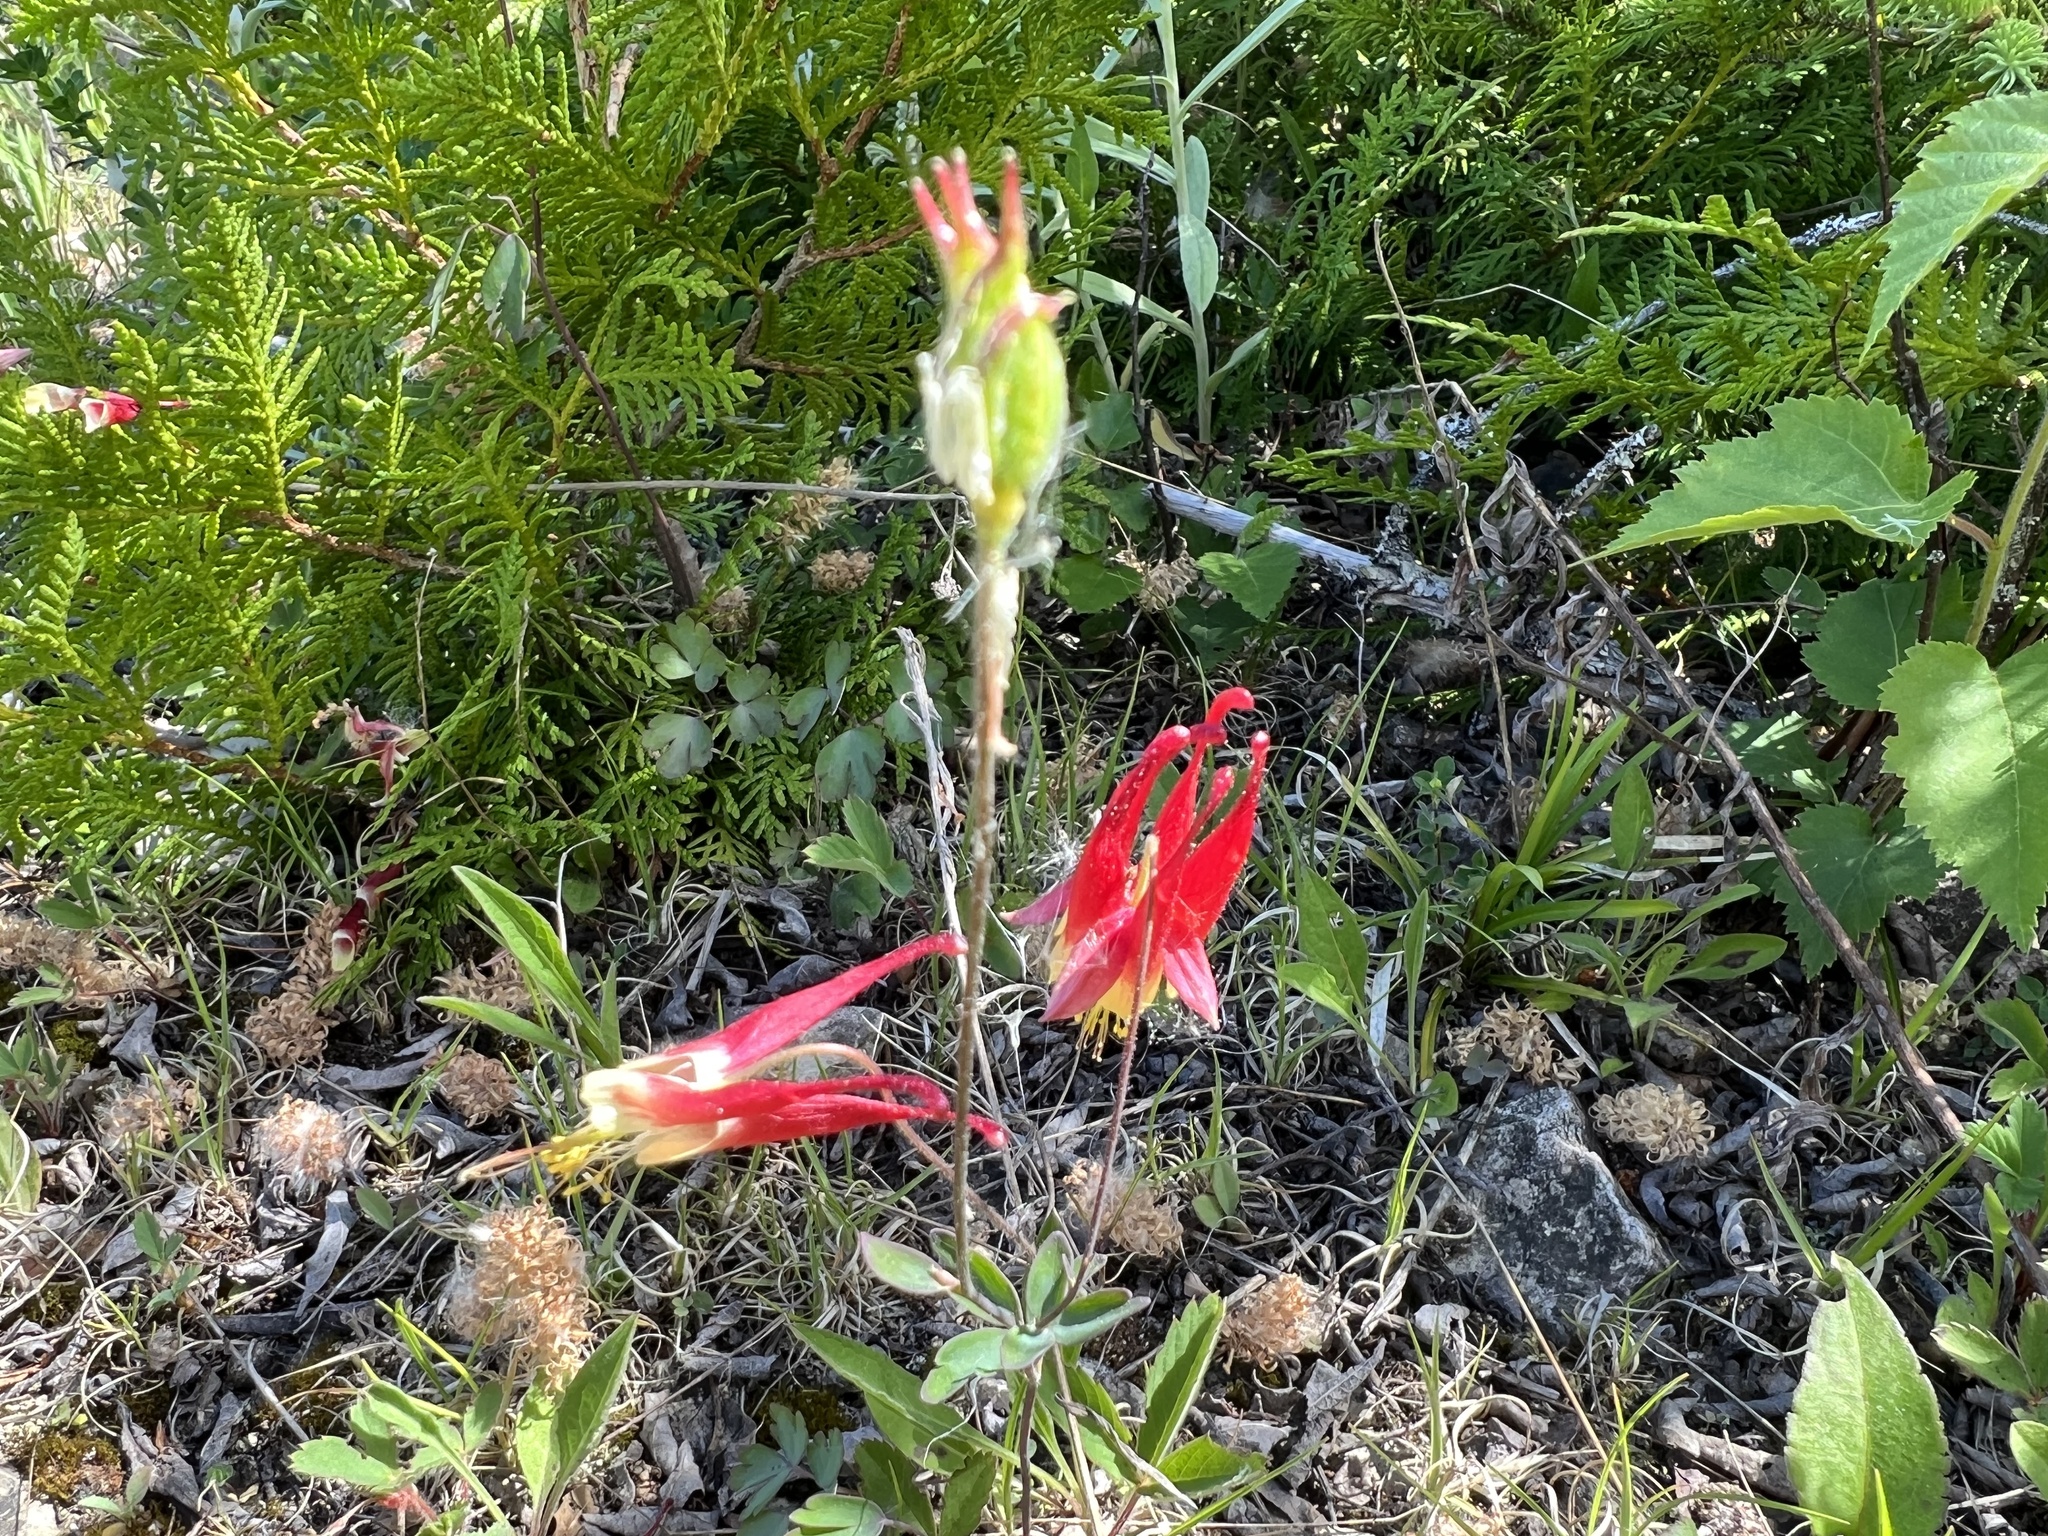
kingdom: Plantae
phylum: Tracheophyta
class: Magnoliopsida
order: Ranunculales
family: Ranunculaceae
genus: Aquilegia
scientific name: Aquilegia canadensis
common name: American columbine
